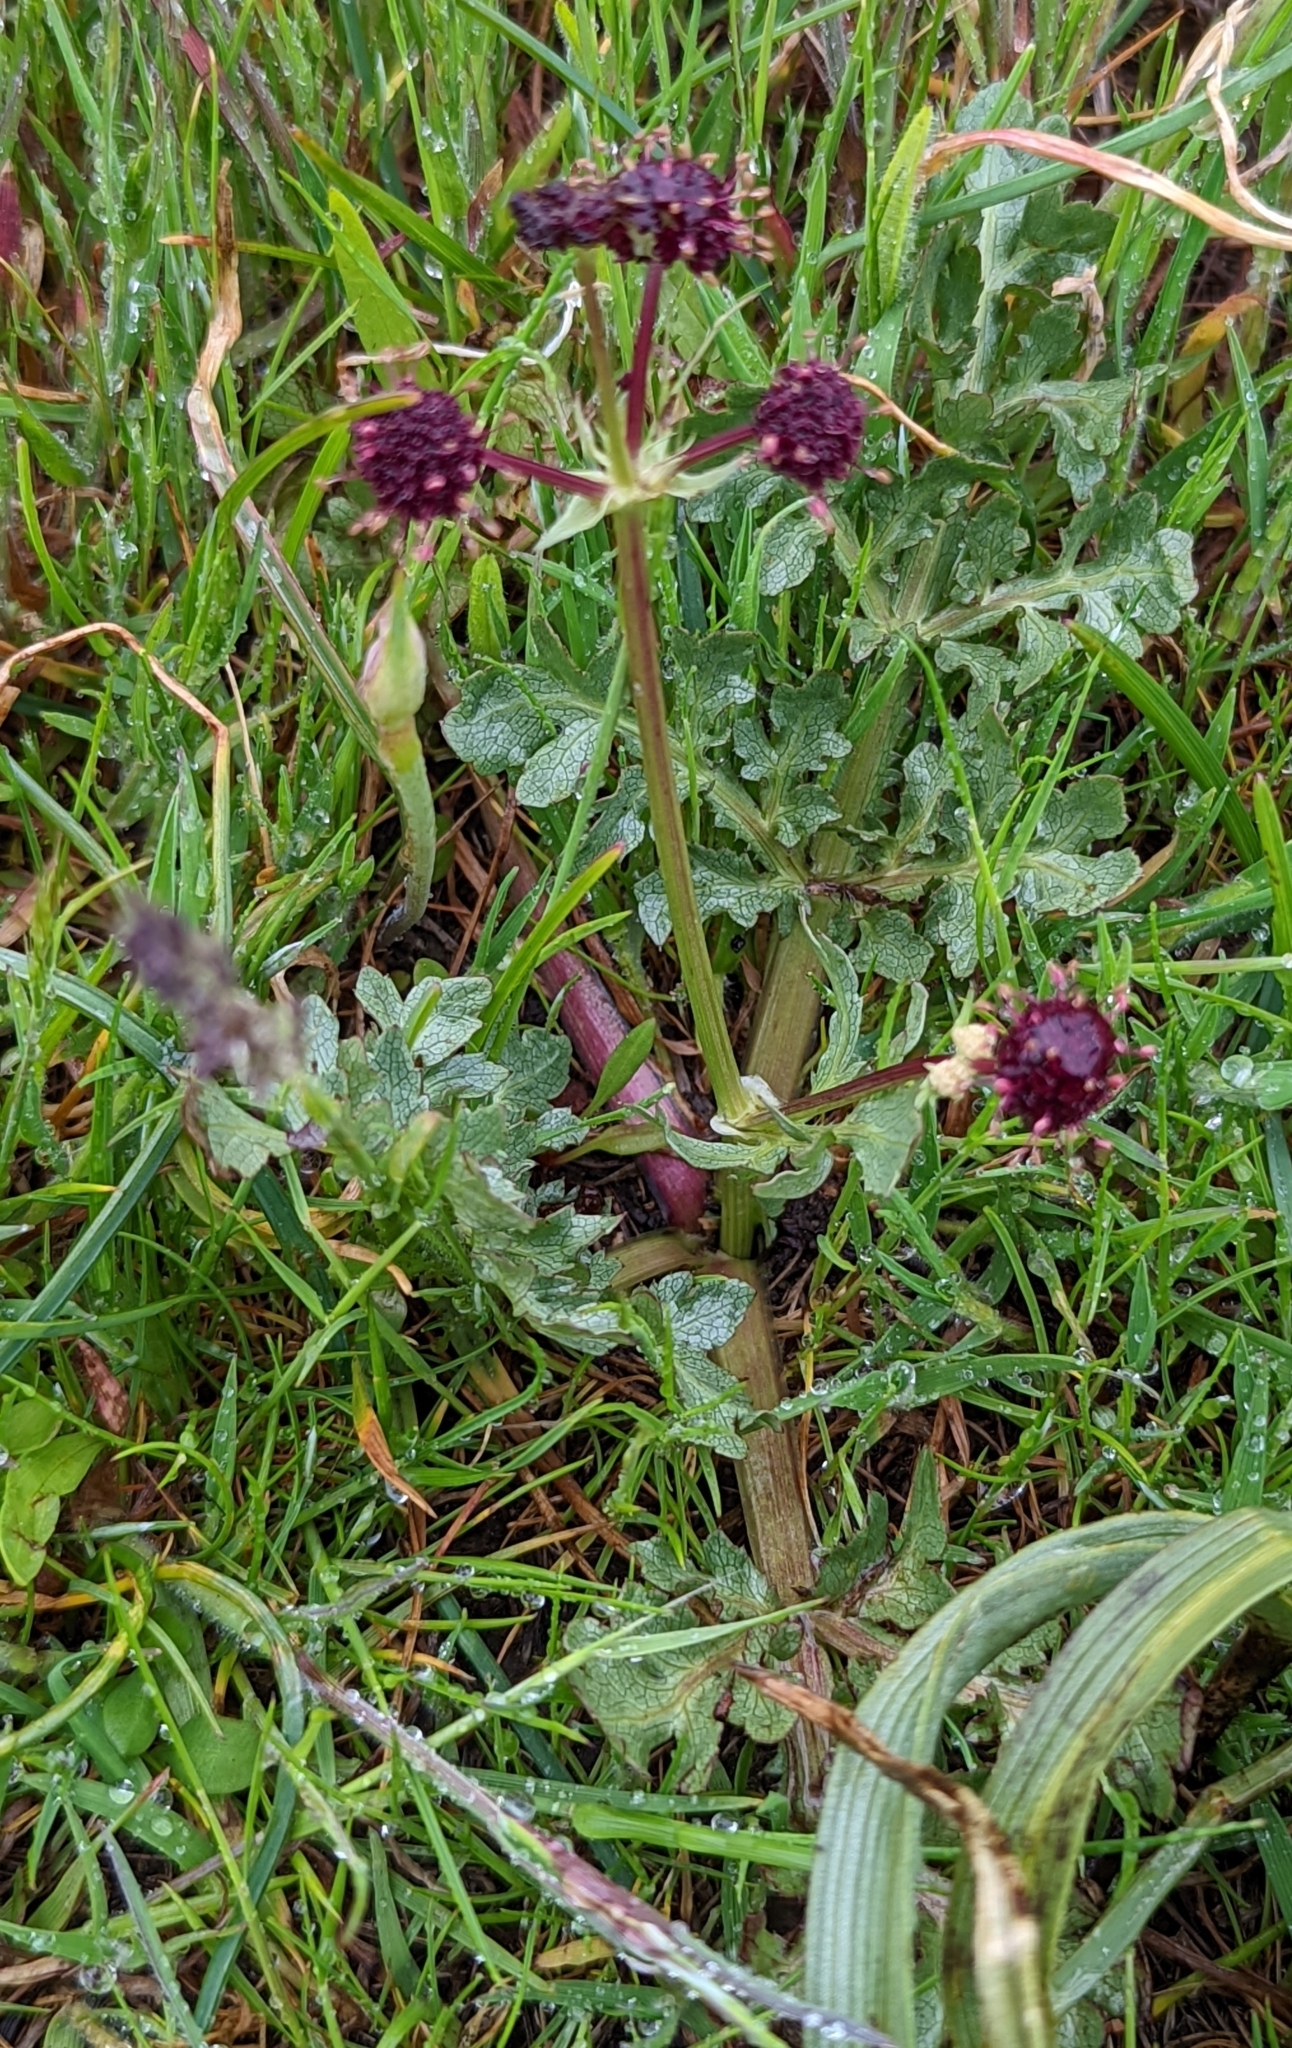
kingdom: Plantae
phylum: Tracheophyta
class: Magnoliopsida
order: Apiales
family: Apiaceae
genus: Sanicula
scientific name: Sanicula bipinnatifida
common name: Shoe-buttons
